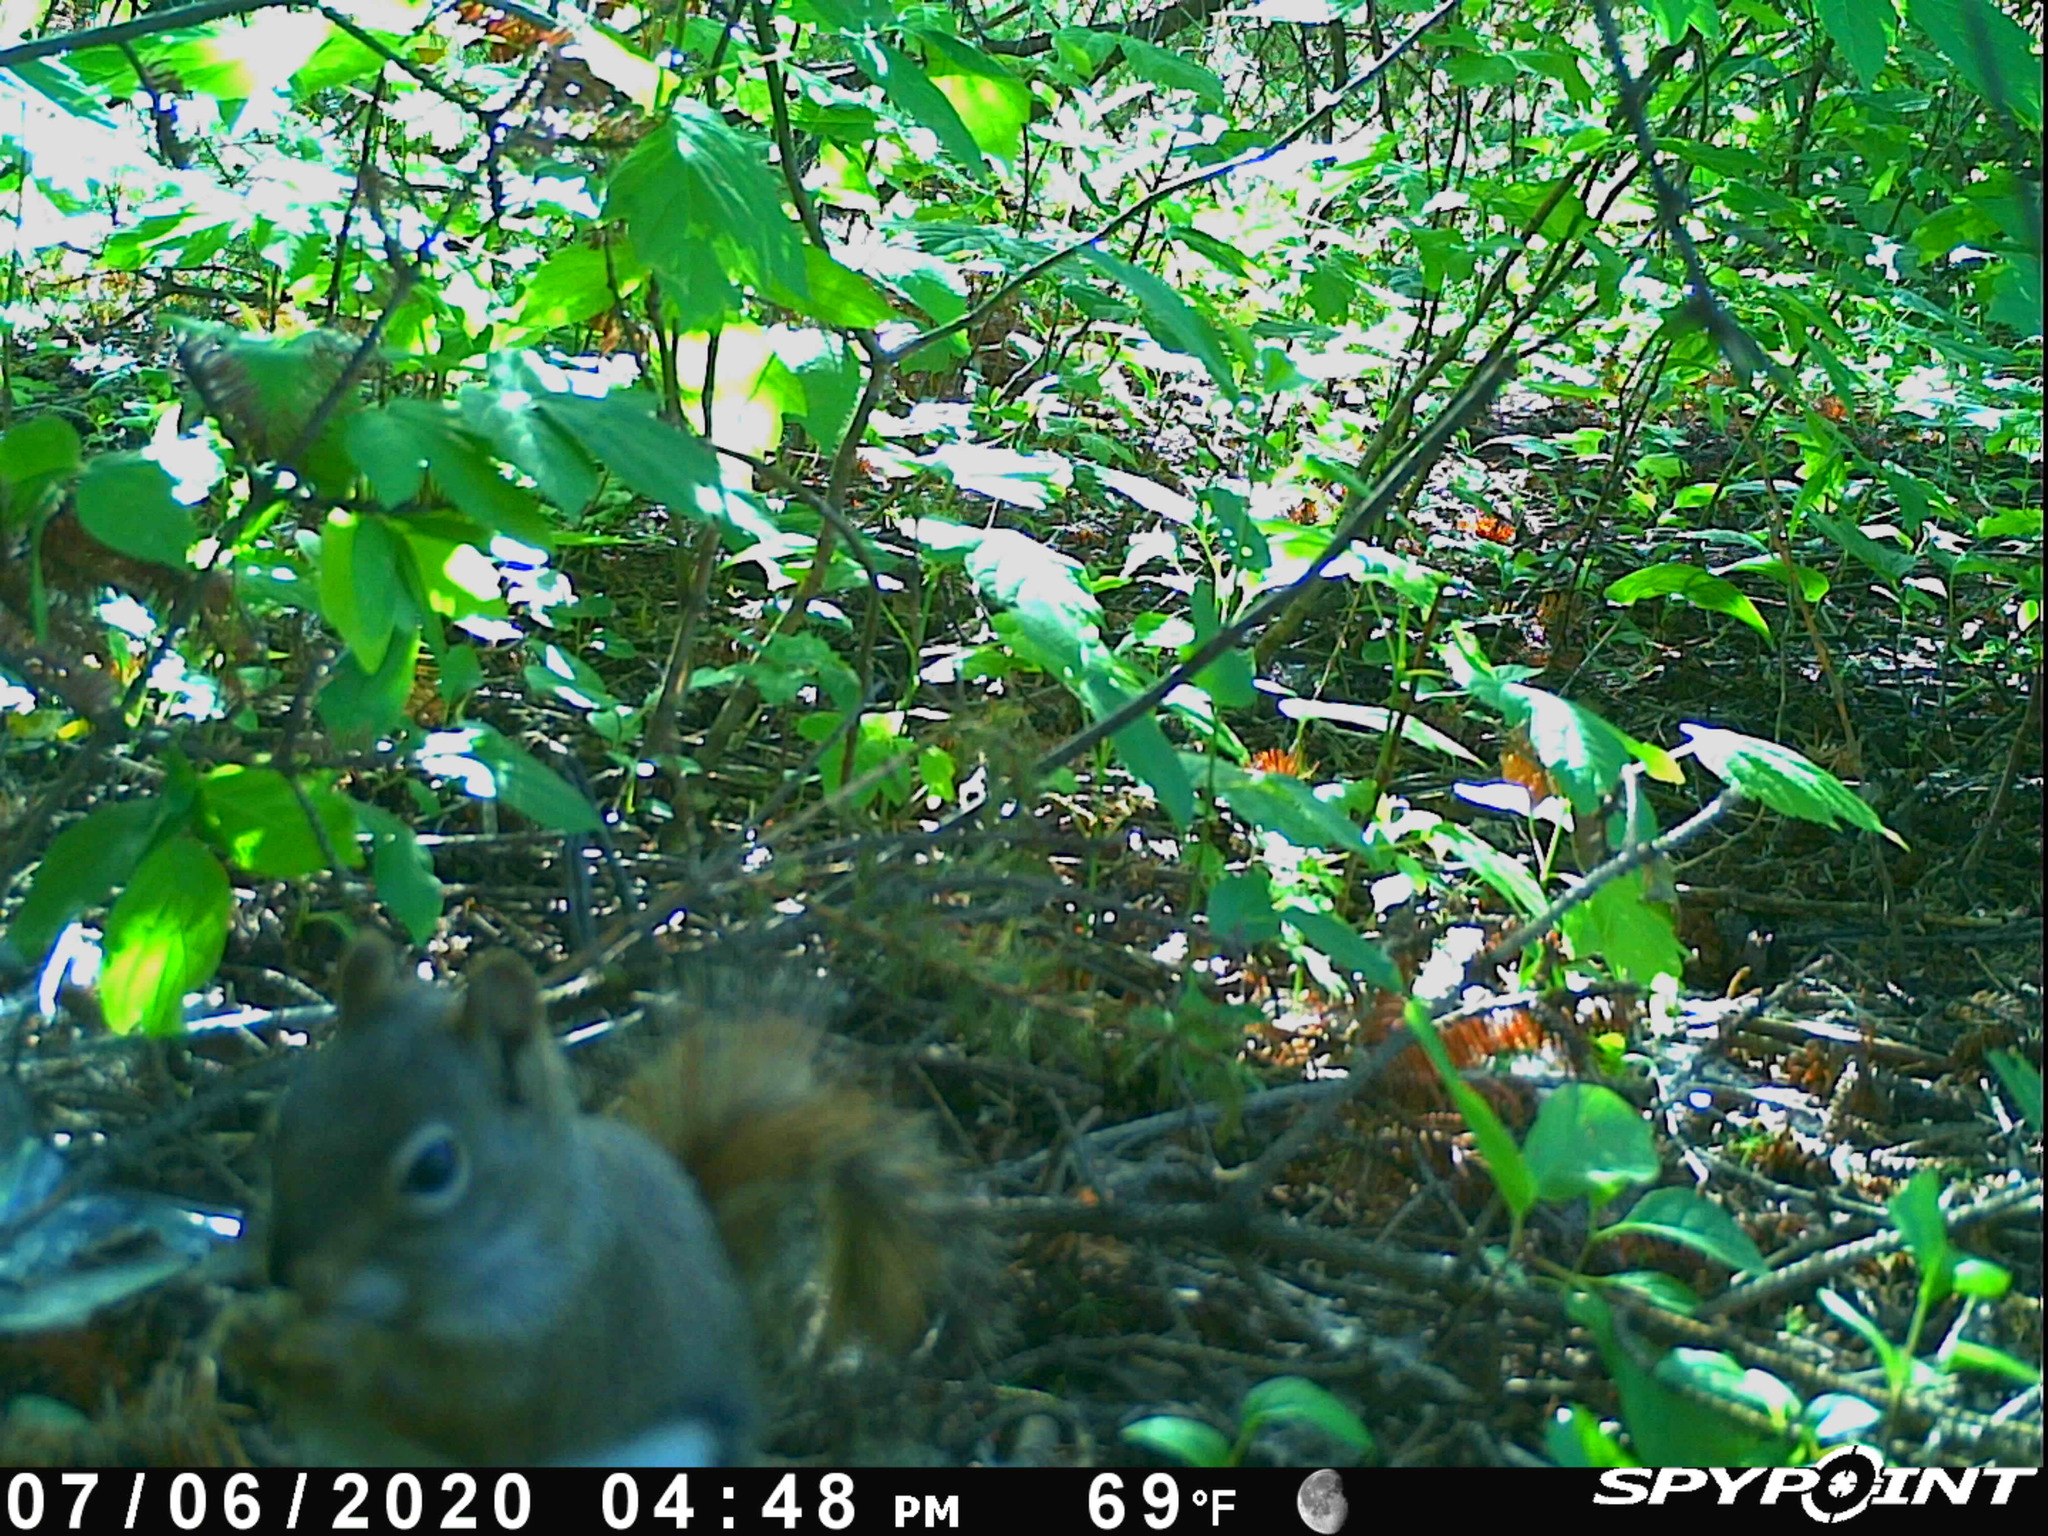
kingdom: Animalia
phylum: Chordata
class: Mammalia
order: Rodentia
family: Sciuridae
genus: Tamiasciurus
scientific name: Tamiasciurus hudsonicus
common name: Red squirrel
